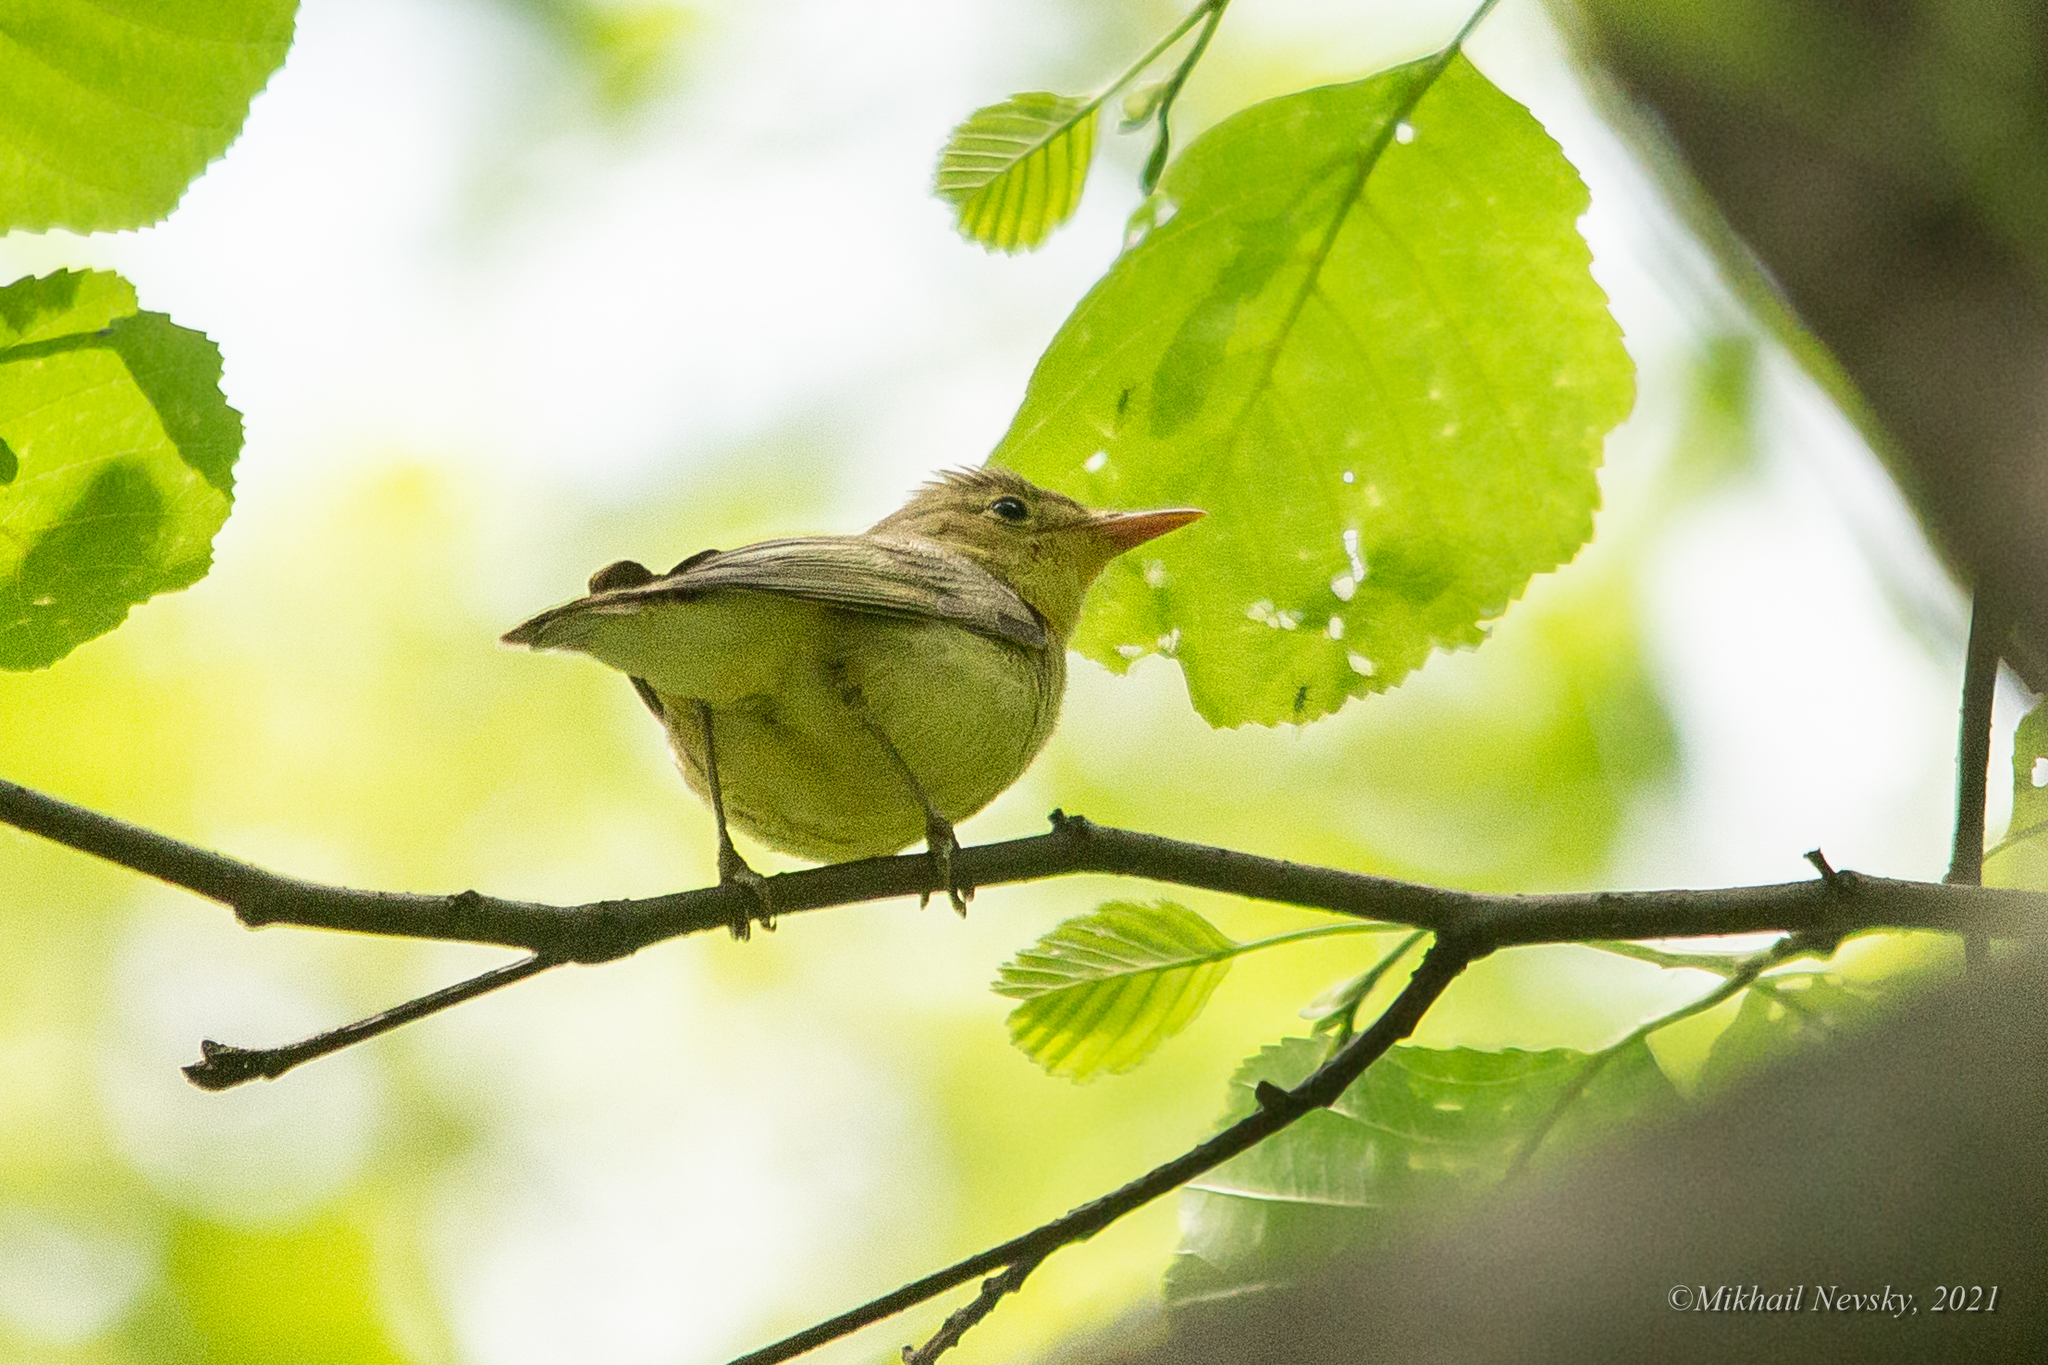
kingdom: Animalia
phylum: Chordata
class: Aves
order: Passeriformes
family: Acrocephalidae
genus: Hippolais
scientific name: Hippolais icterina
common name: Icterine warbler
